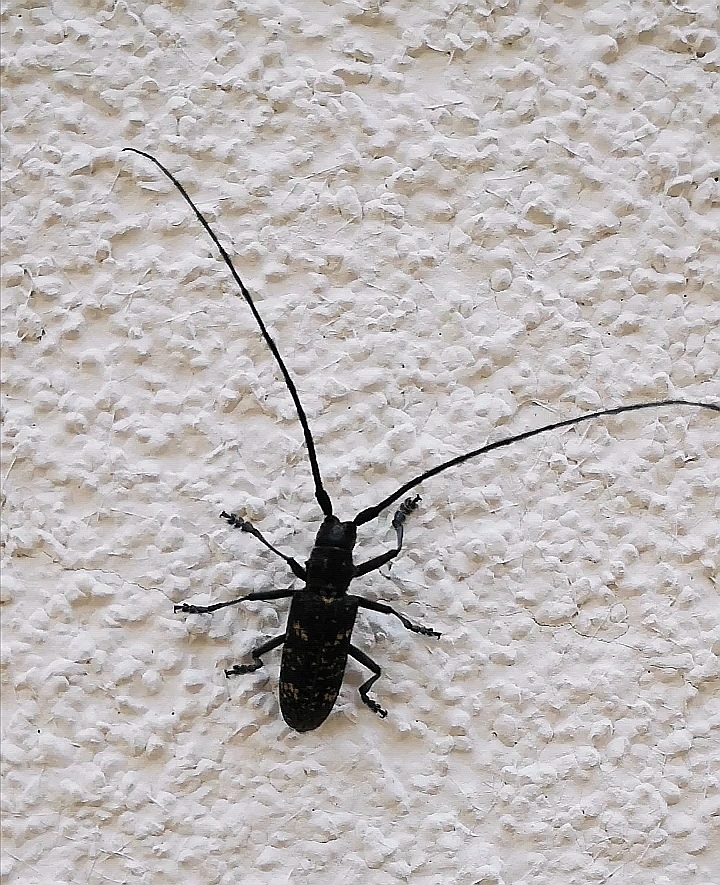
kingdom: Animalia
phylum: Arthropoda
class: Insecta
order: Coleoptera
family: Cerambycidae
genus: Monochamus
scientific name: Monochamus sutor
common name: Pine sawyer
